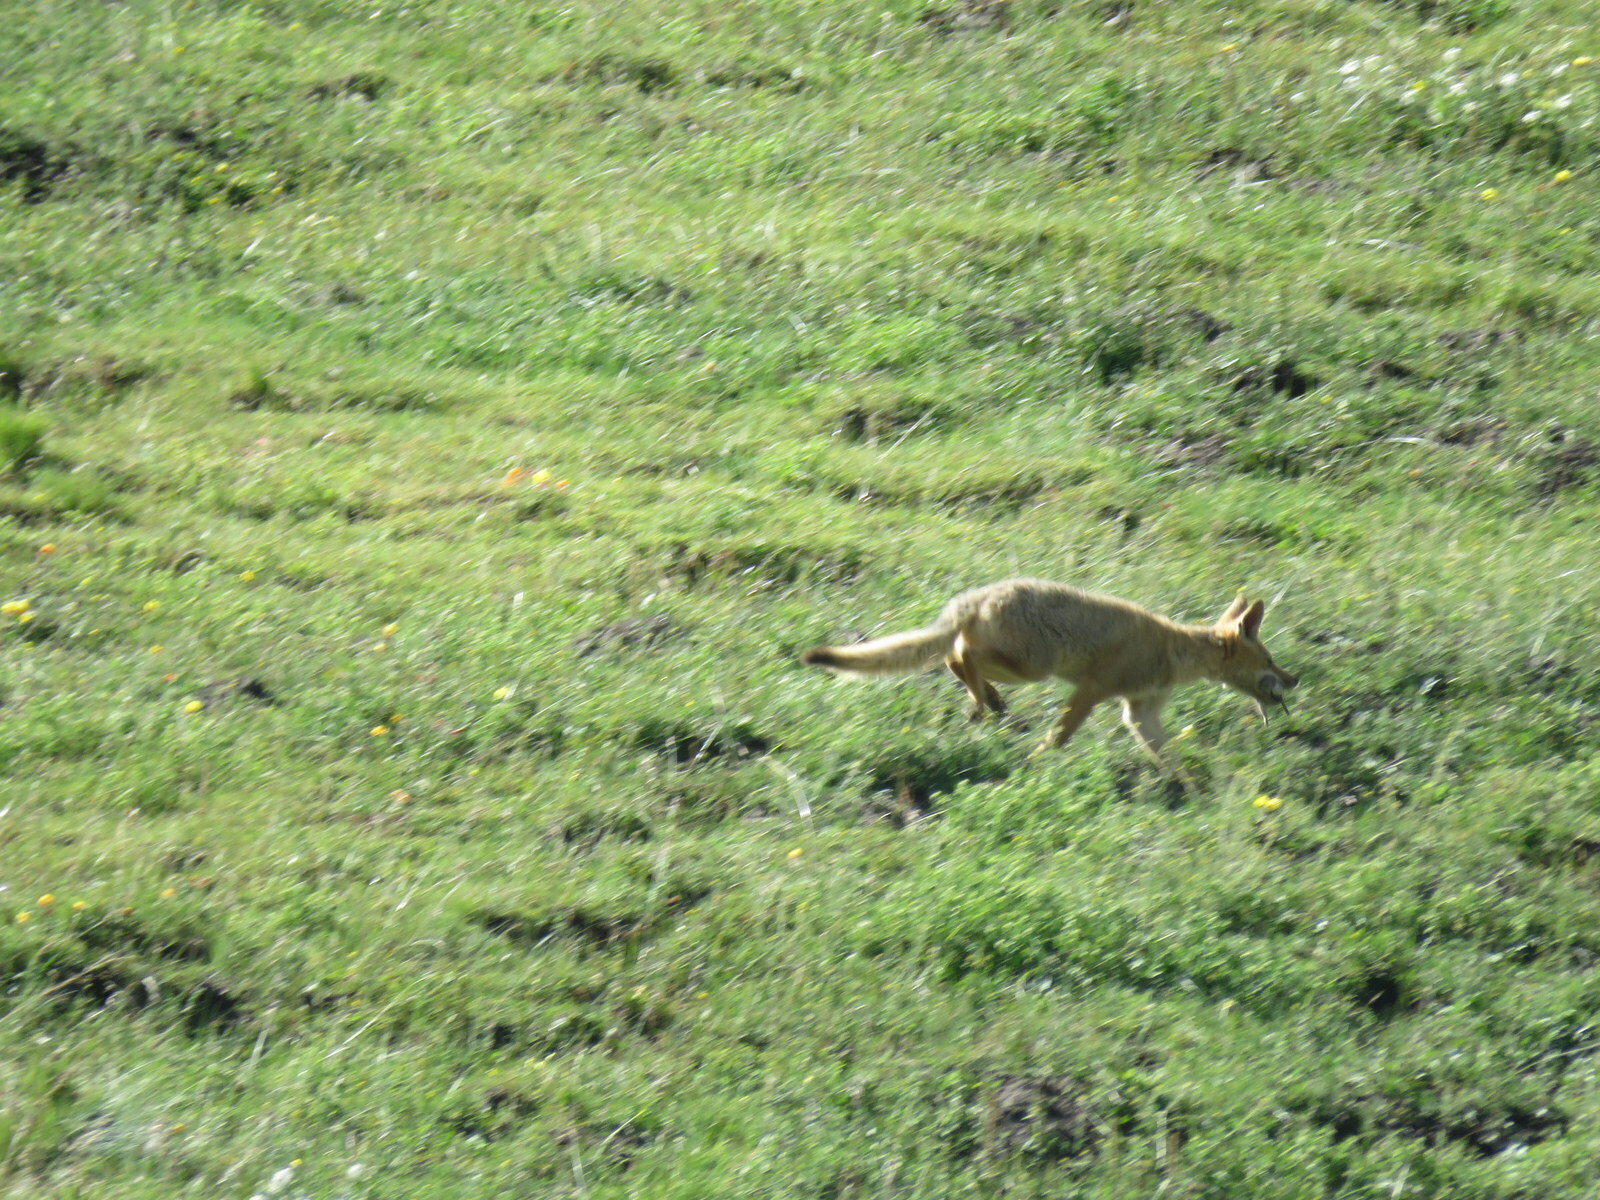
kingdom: Animalia
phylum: Chordata
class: Mammalia
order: Carnivora
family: Canidae
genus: Lycalopex
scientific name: Lycalopex culpaeus
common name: Culpeo
